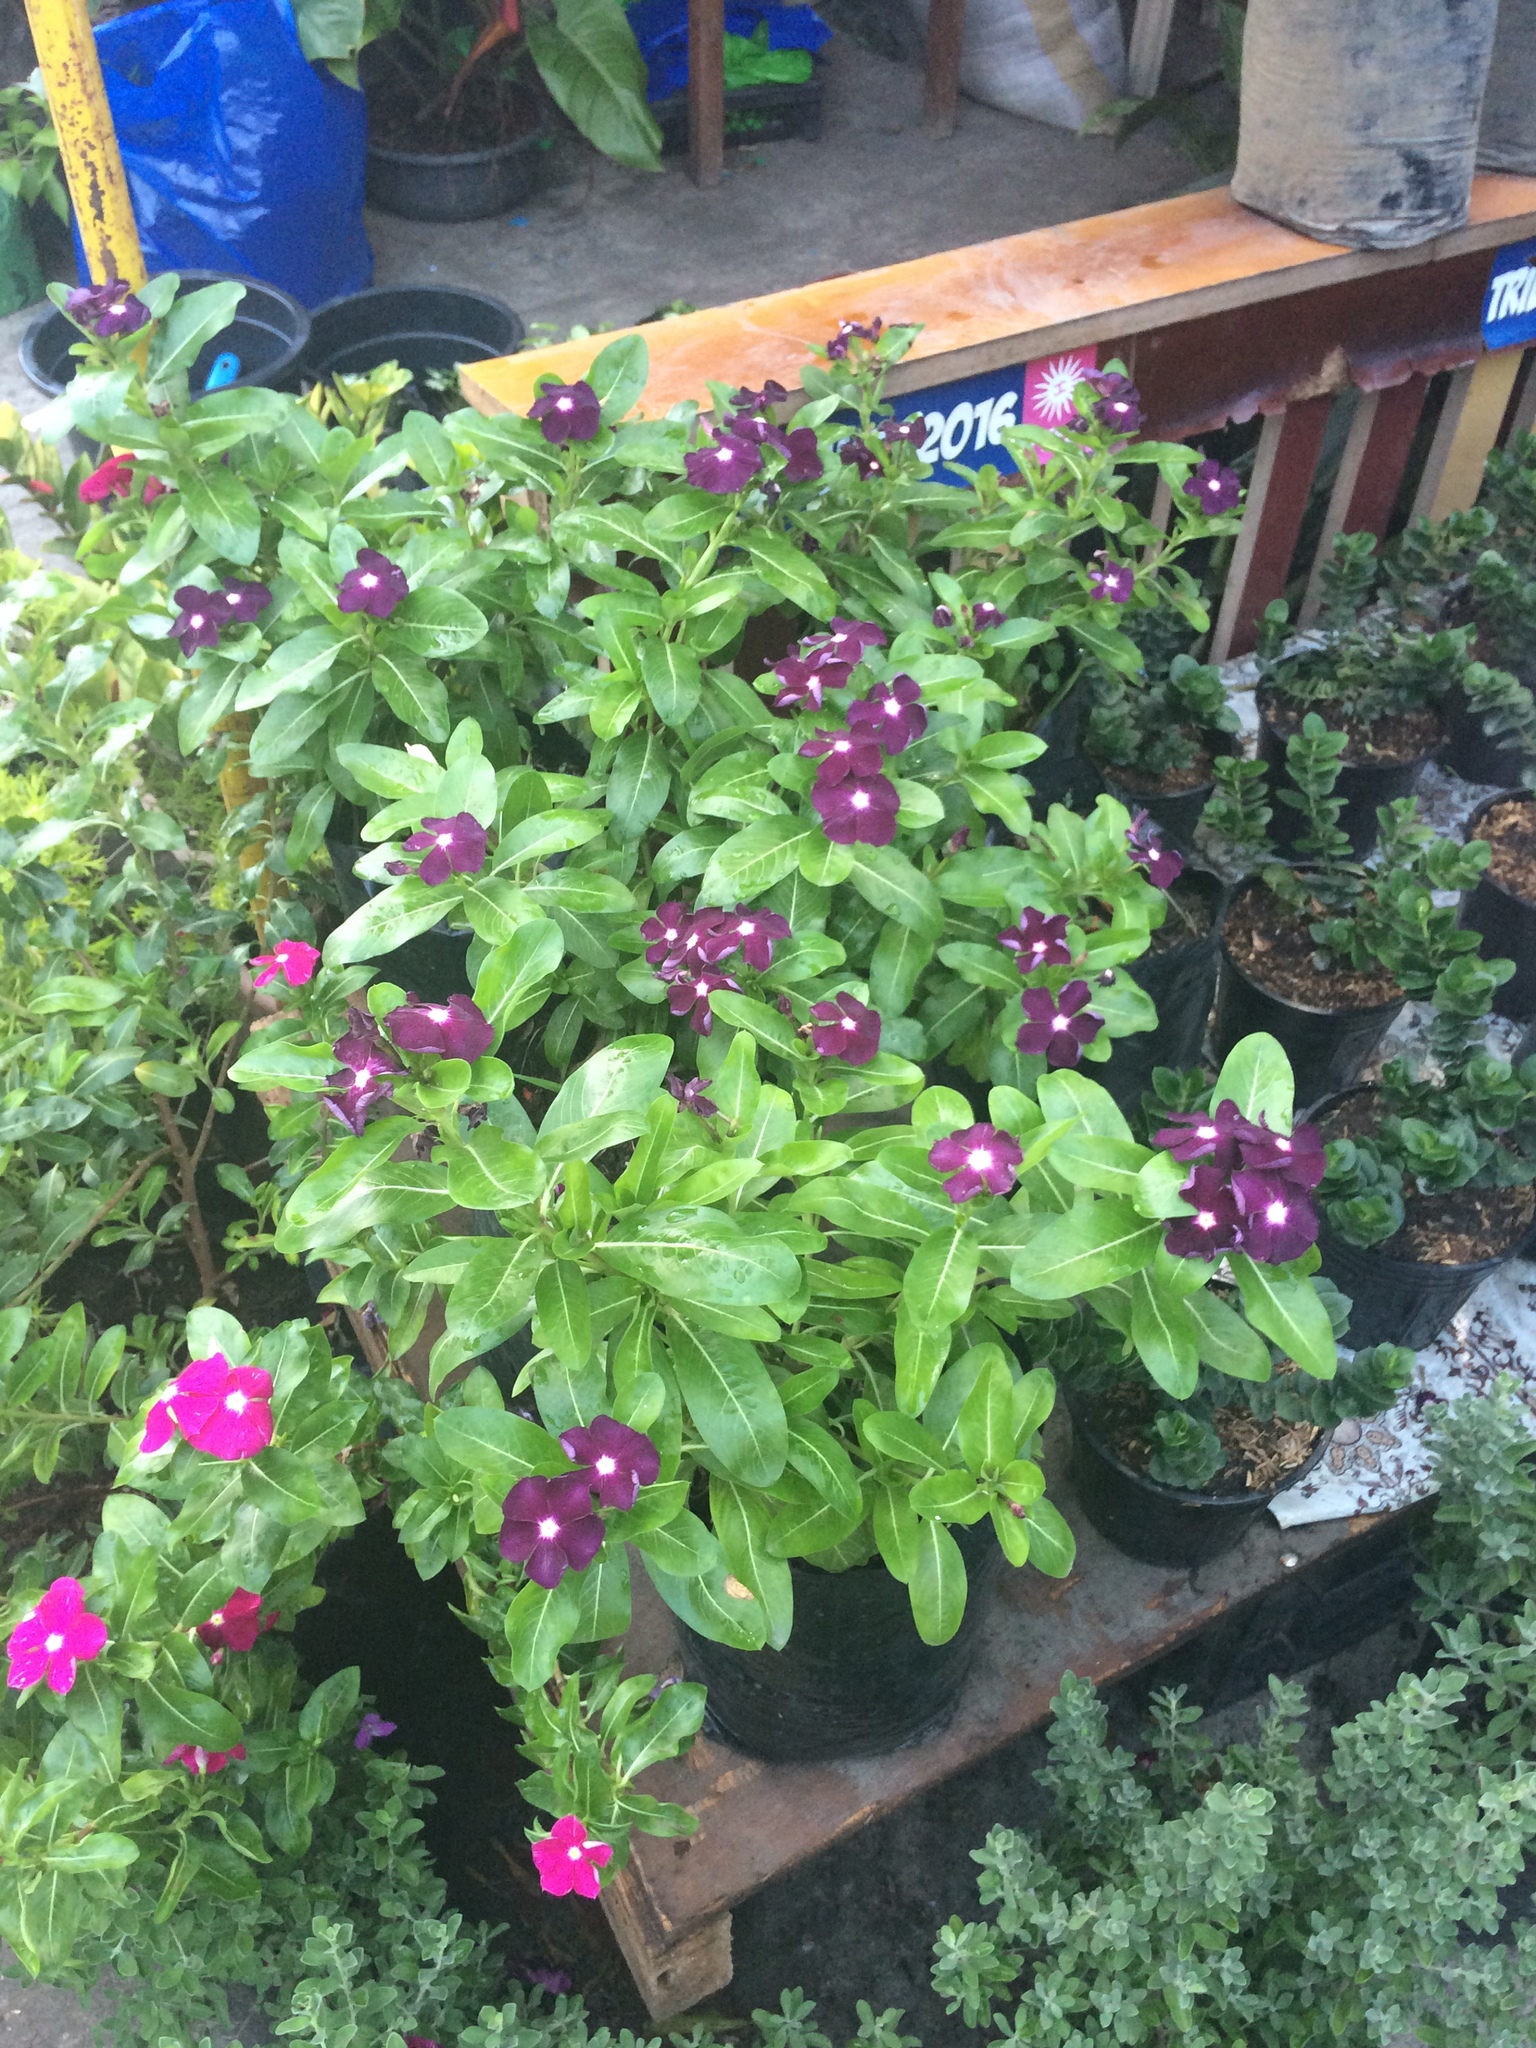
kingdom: Plantae
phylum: Tracheophyta
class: Magnoliopsida
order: Gentianales
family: Apocynaceae
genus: Catharanthus
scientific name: Catharanthus roseus
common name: Madagascar periwinkle
